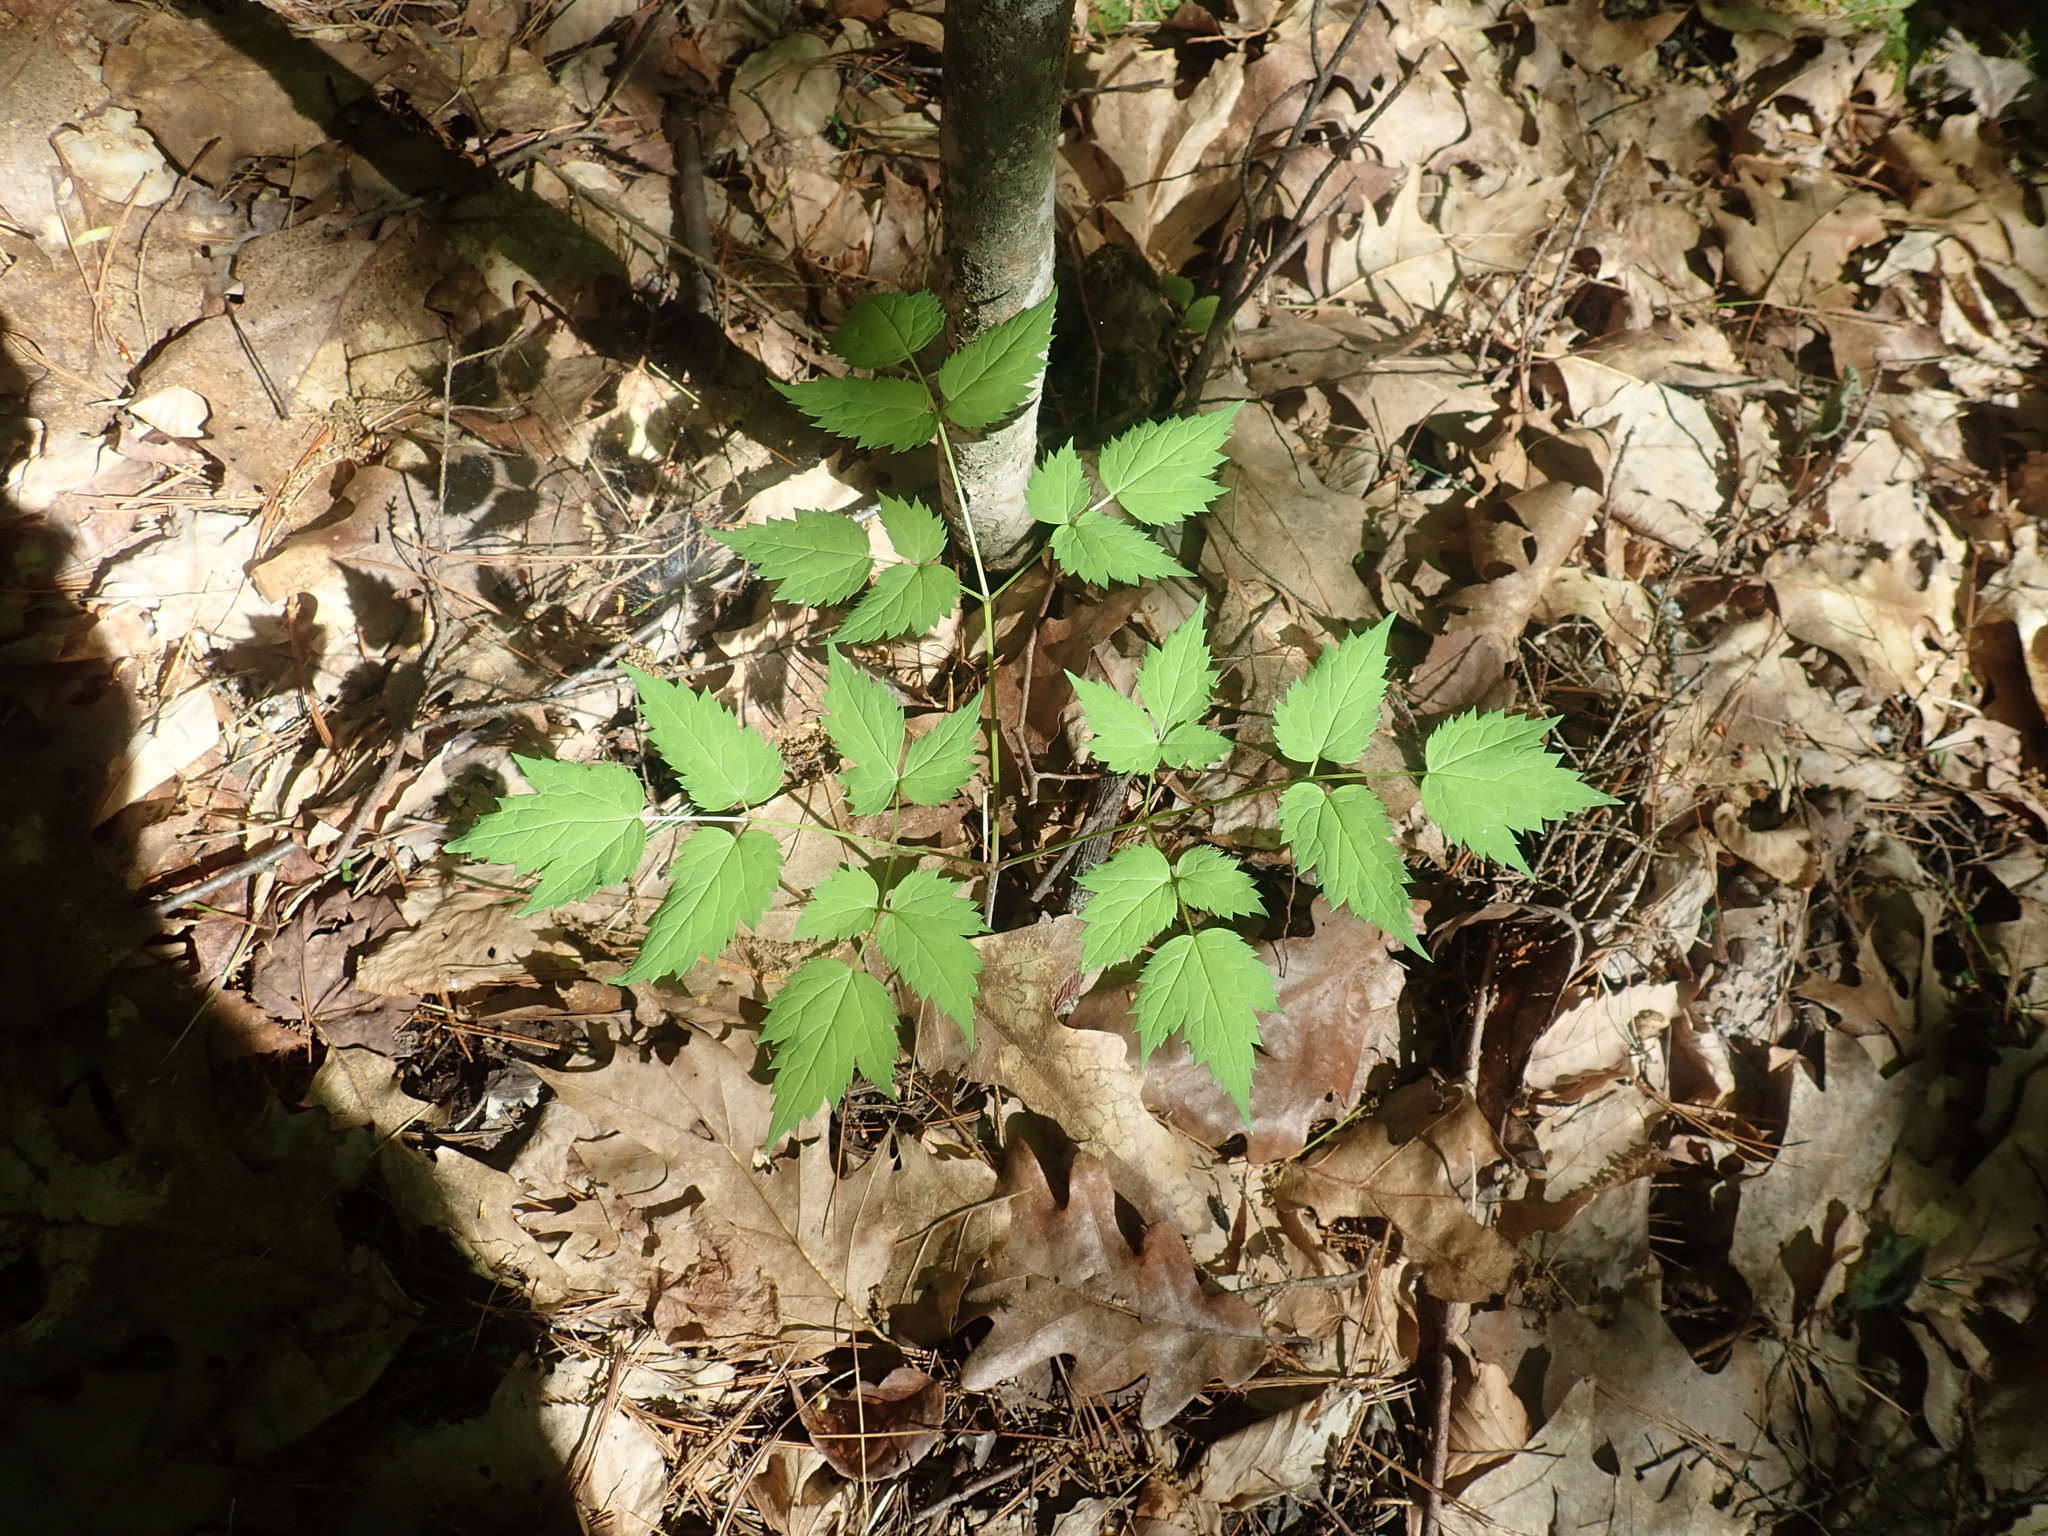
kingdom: Plantae
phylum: Tracheophyta
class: Magnoliopsida
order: Ranunculales
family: Ranunculaceae
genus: Actaea
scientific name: Actaea
